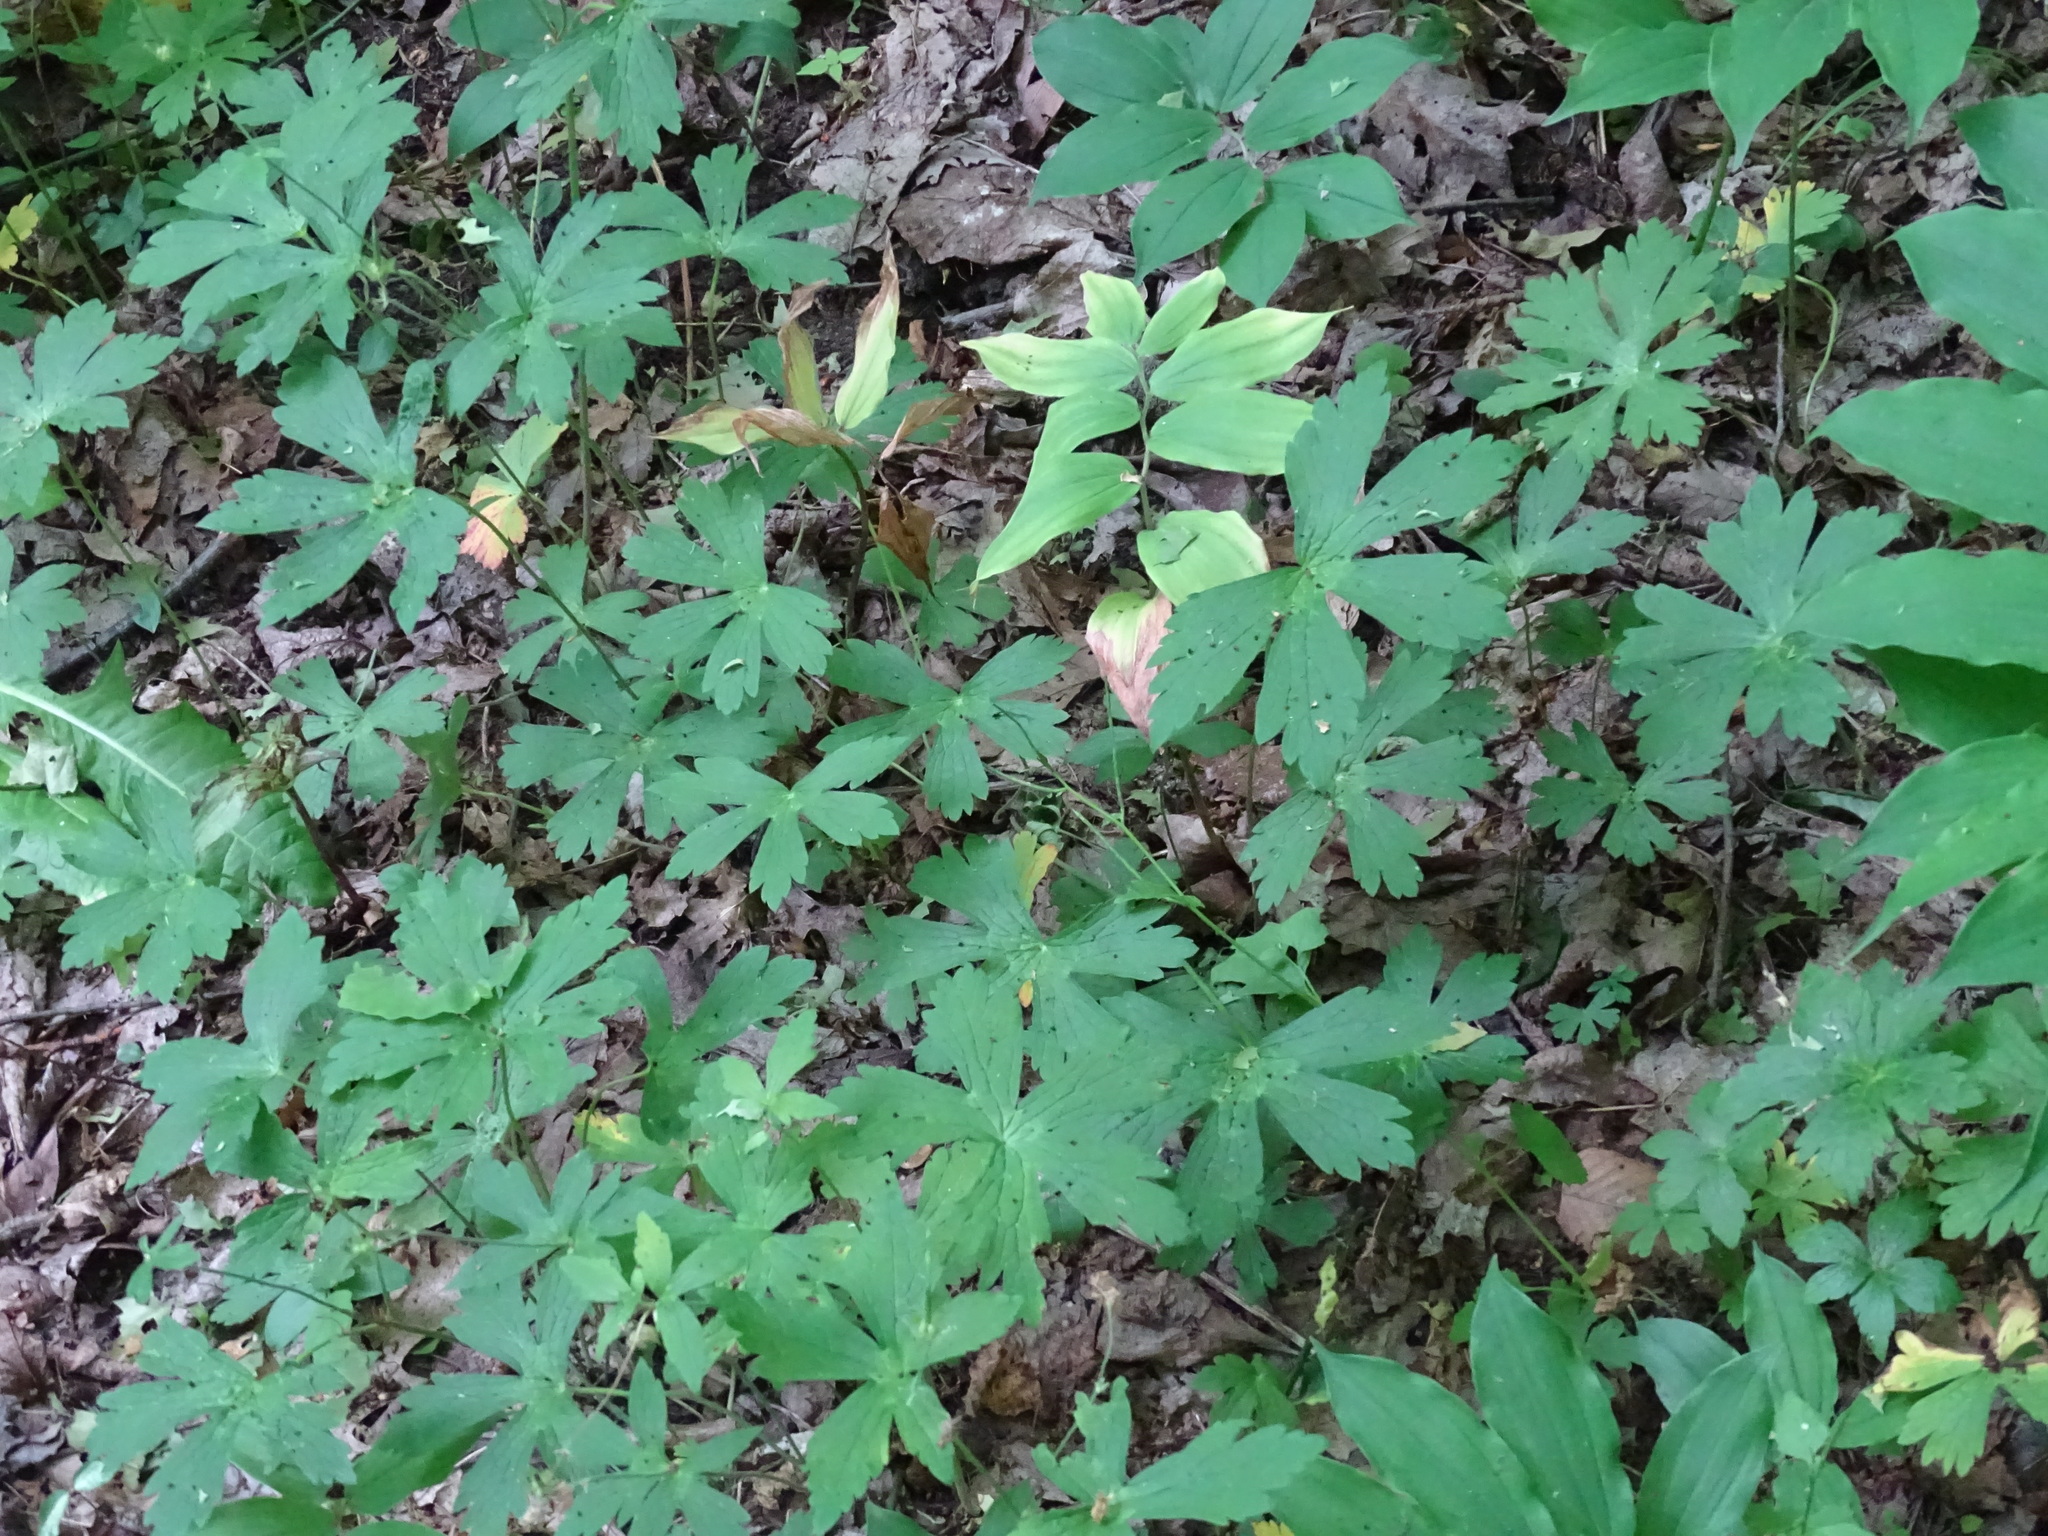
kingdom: Plantae
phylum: Tracheophyta
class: Magnoliopsida
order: Geraniales
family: Geraniaceae
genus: Geranium
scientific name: Geranium maculatum
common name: Spotted geranium
